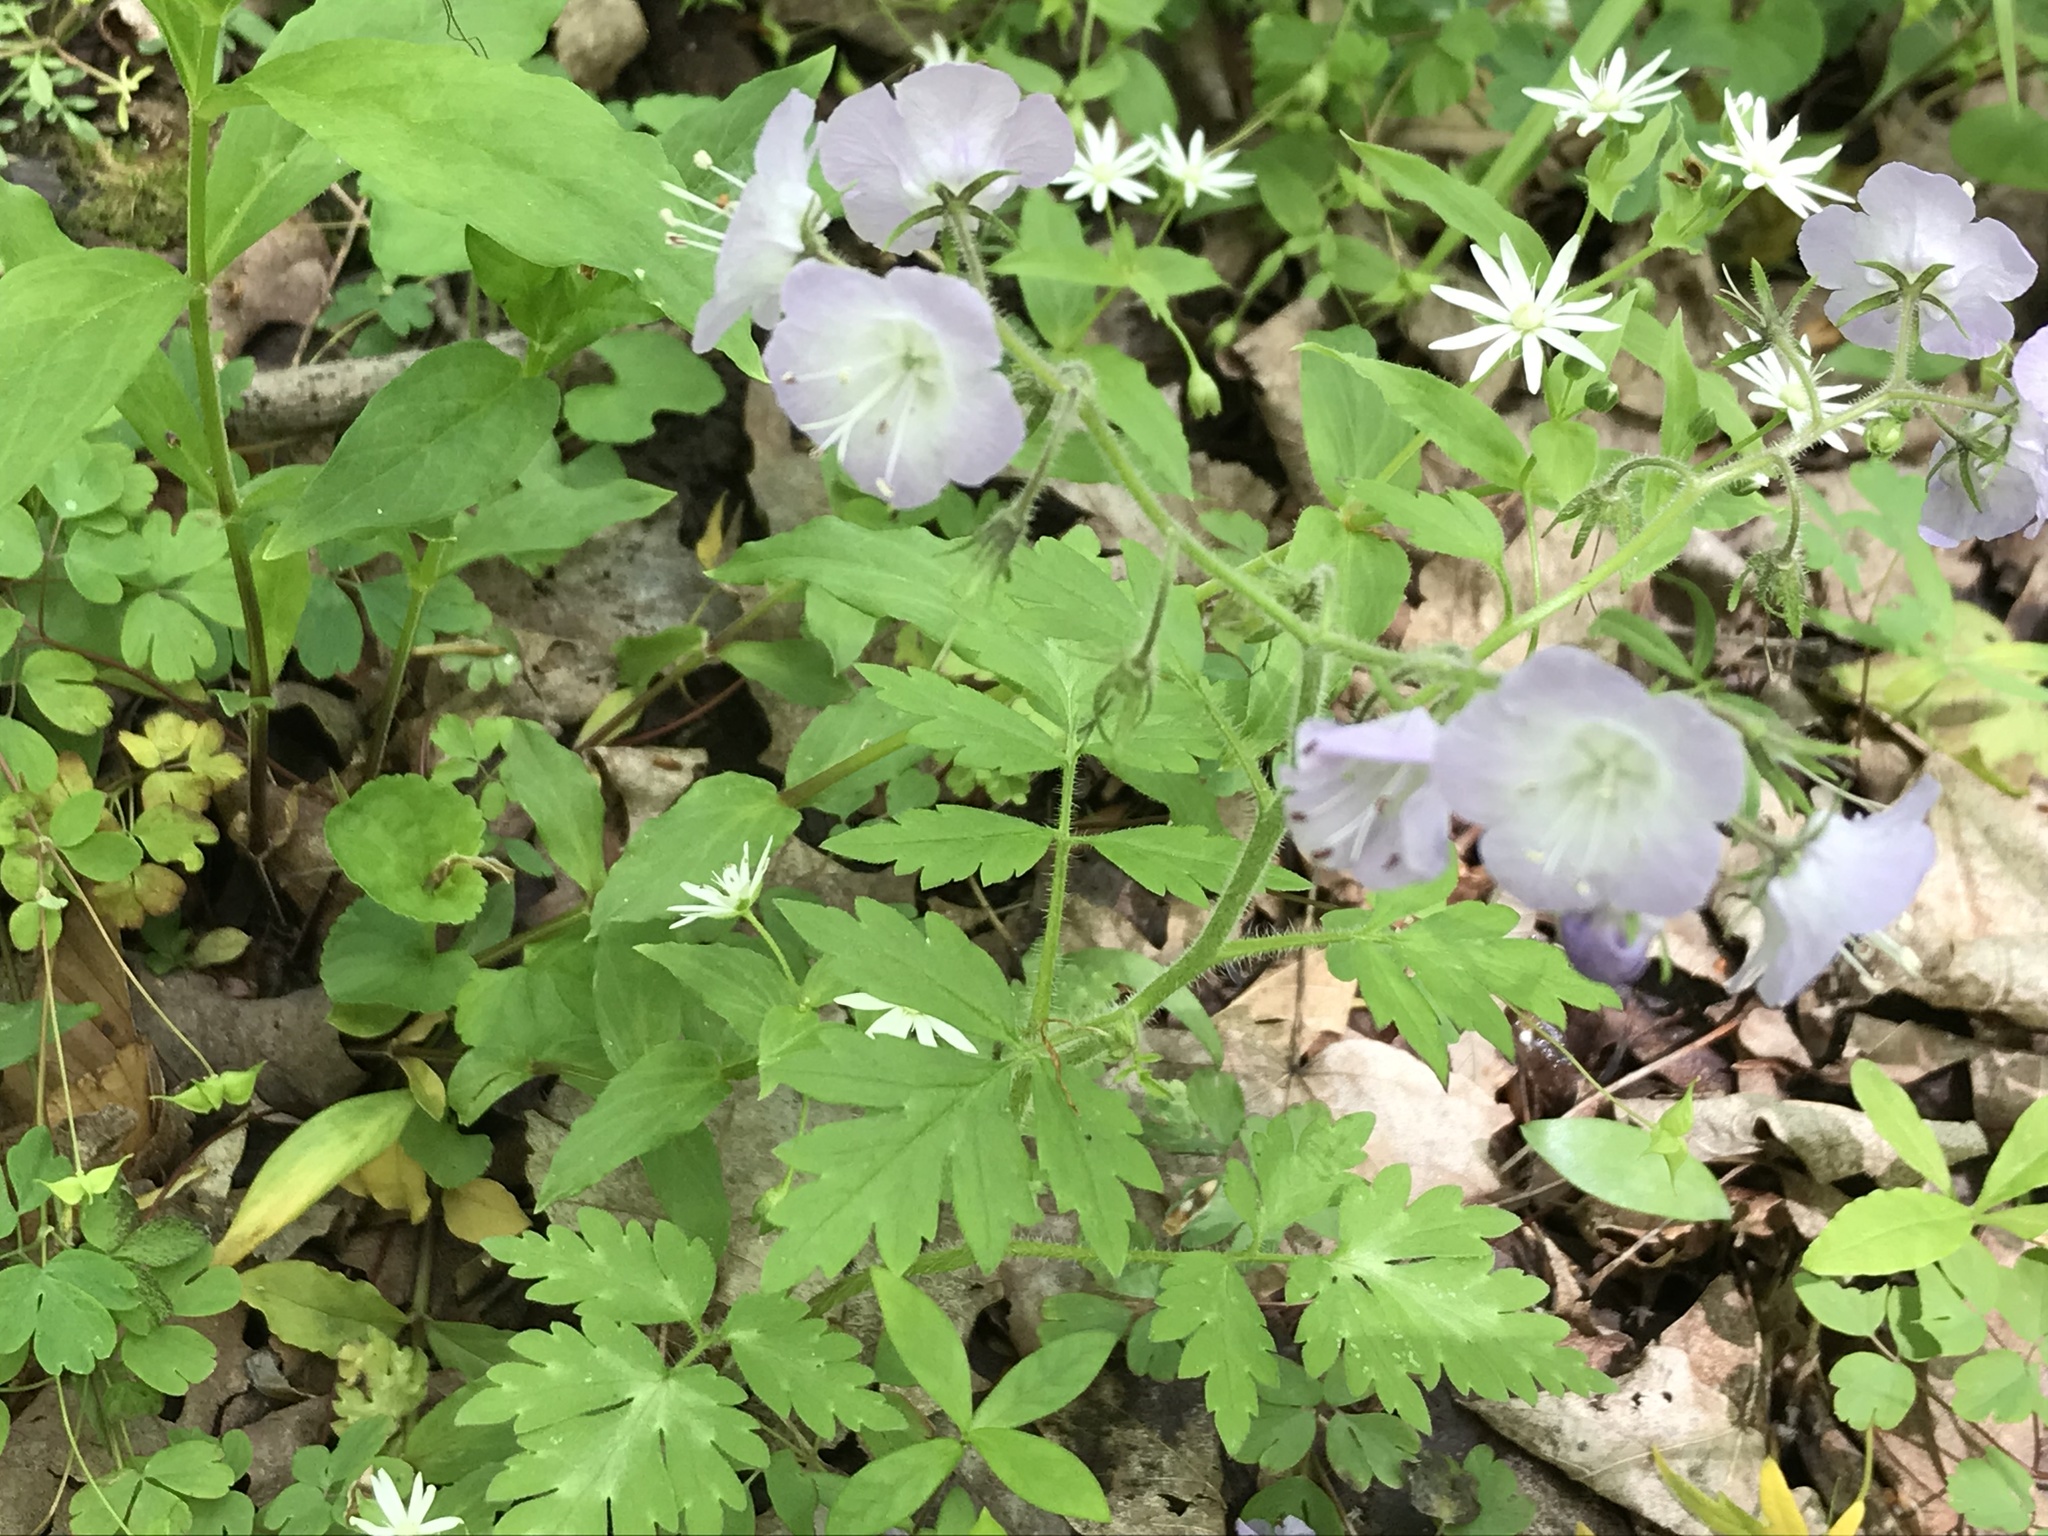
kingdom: Plantae
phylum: Tracheophyta
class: Magnoliopsida
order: Boraginales
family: Hydrophyllaceae
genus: Phacelia
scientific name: Phacelia bipinnatifida
